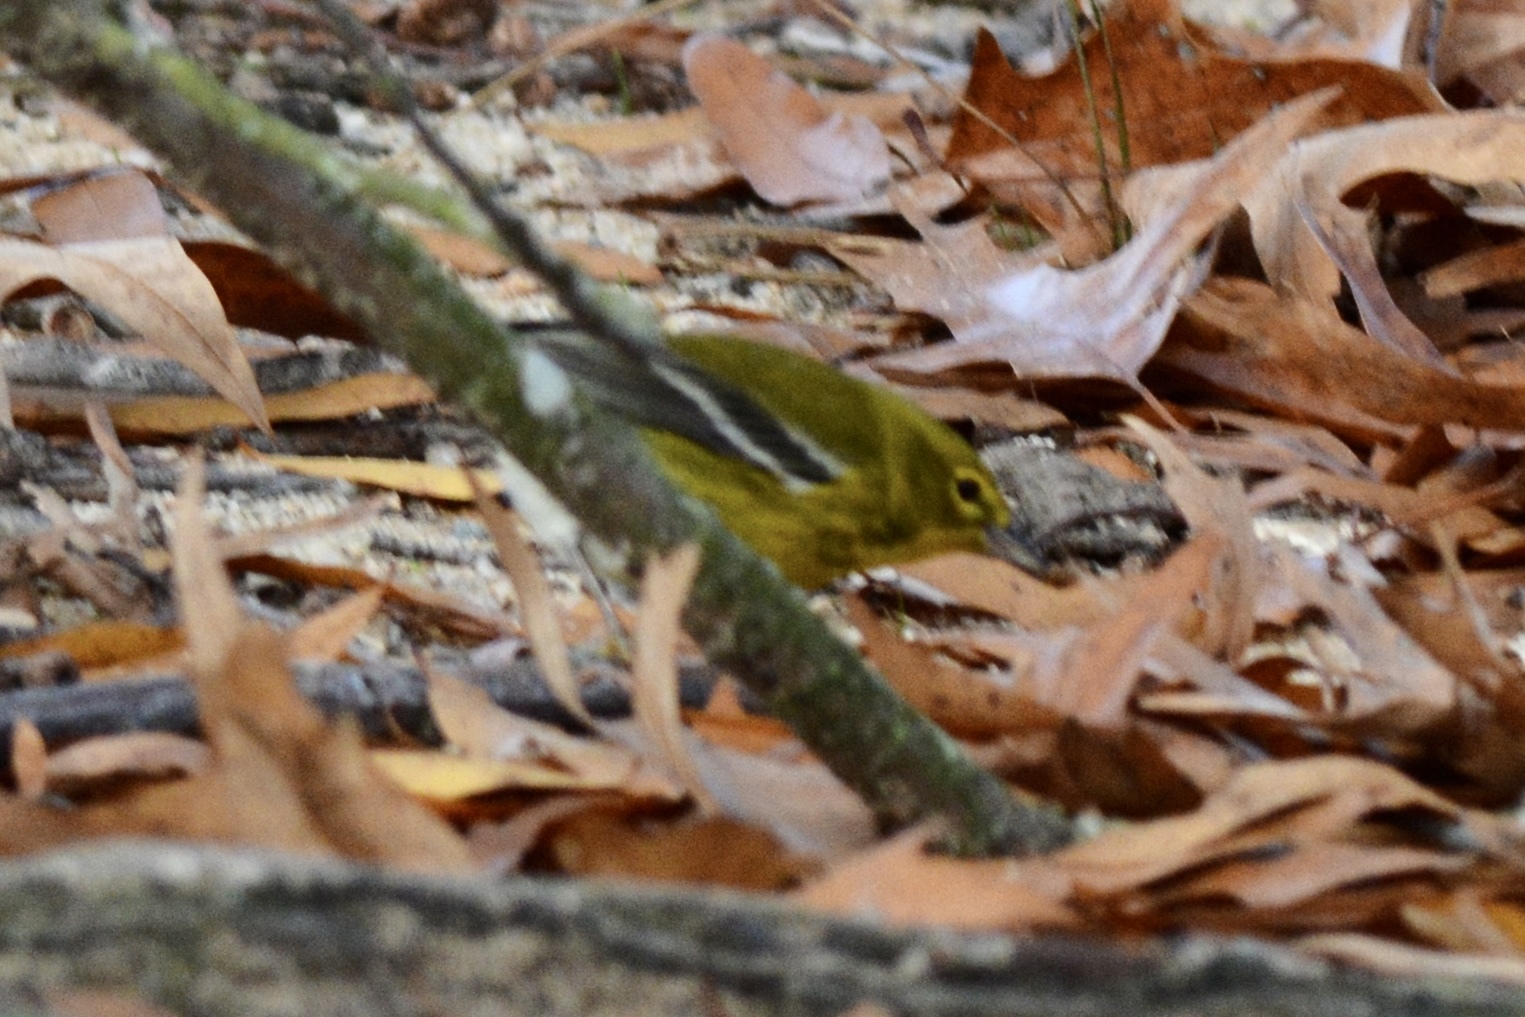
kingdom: Animalia
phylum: Chordata
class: Aves
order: Passeriformes
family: Parulidae
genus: Setophaga
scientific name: Setophaga pinus
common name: Pine warbler
